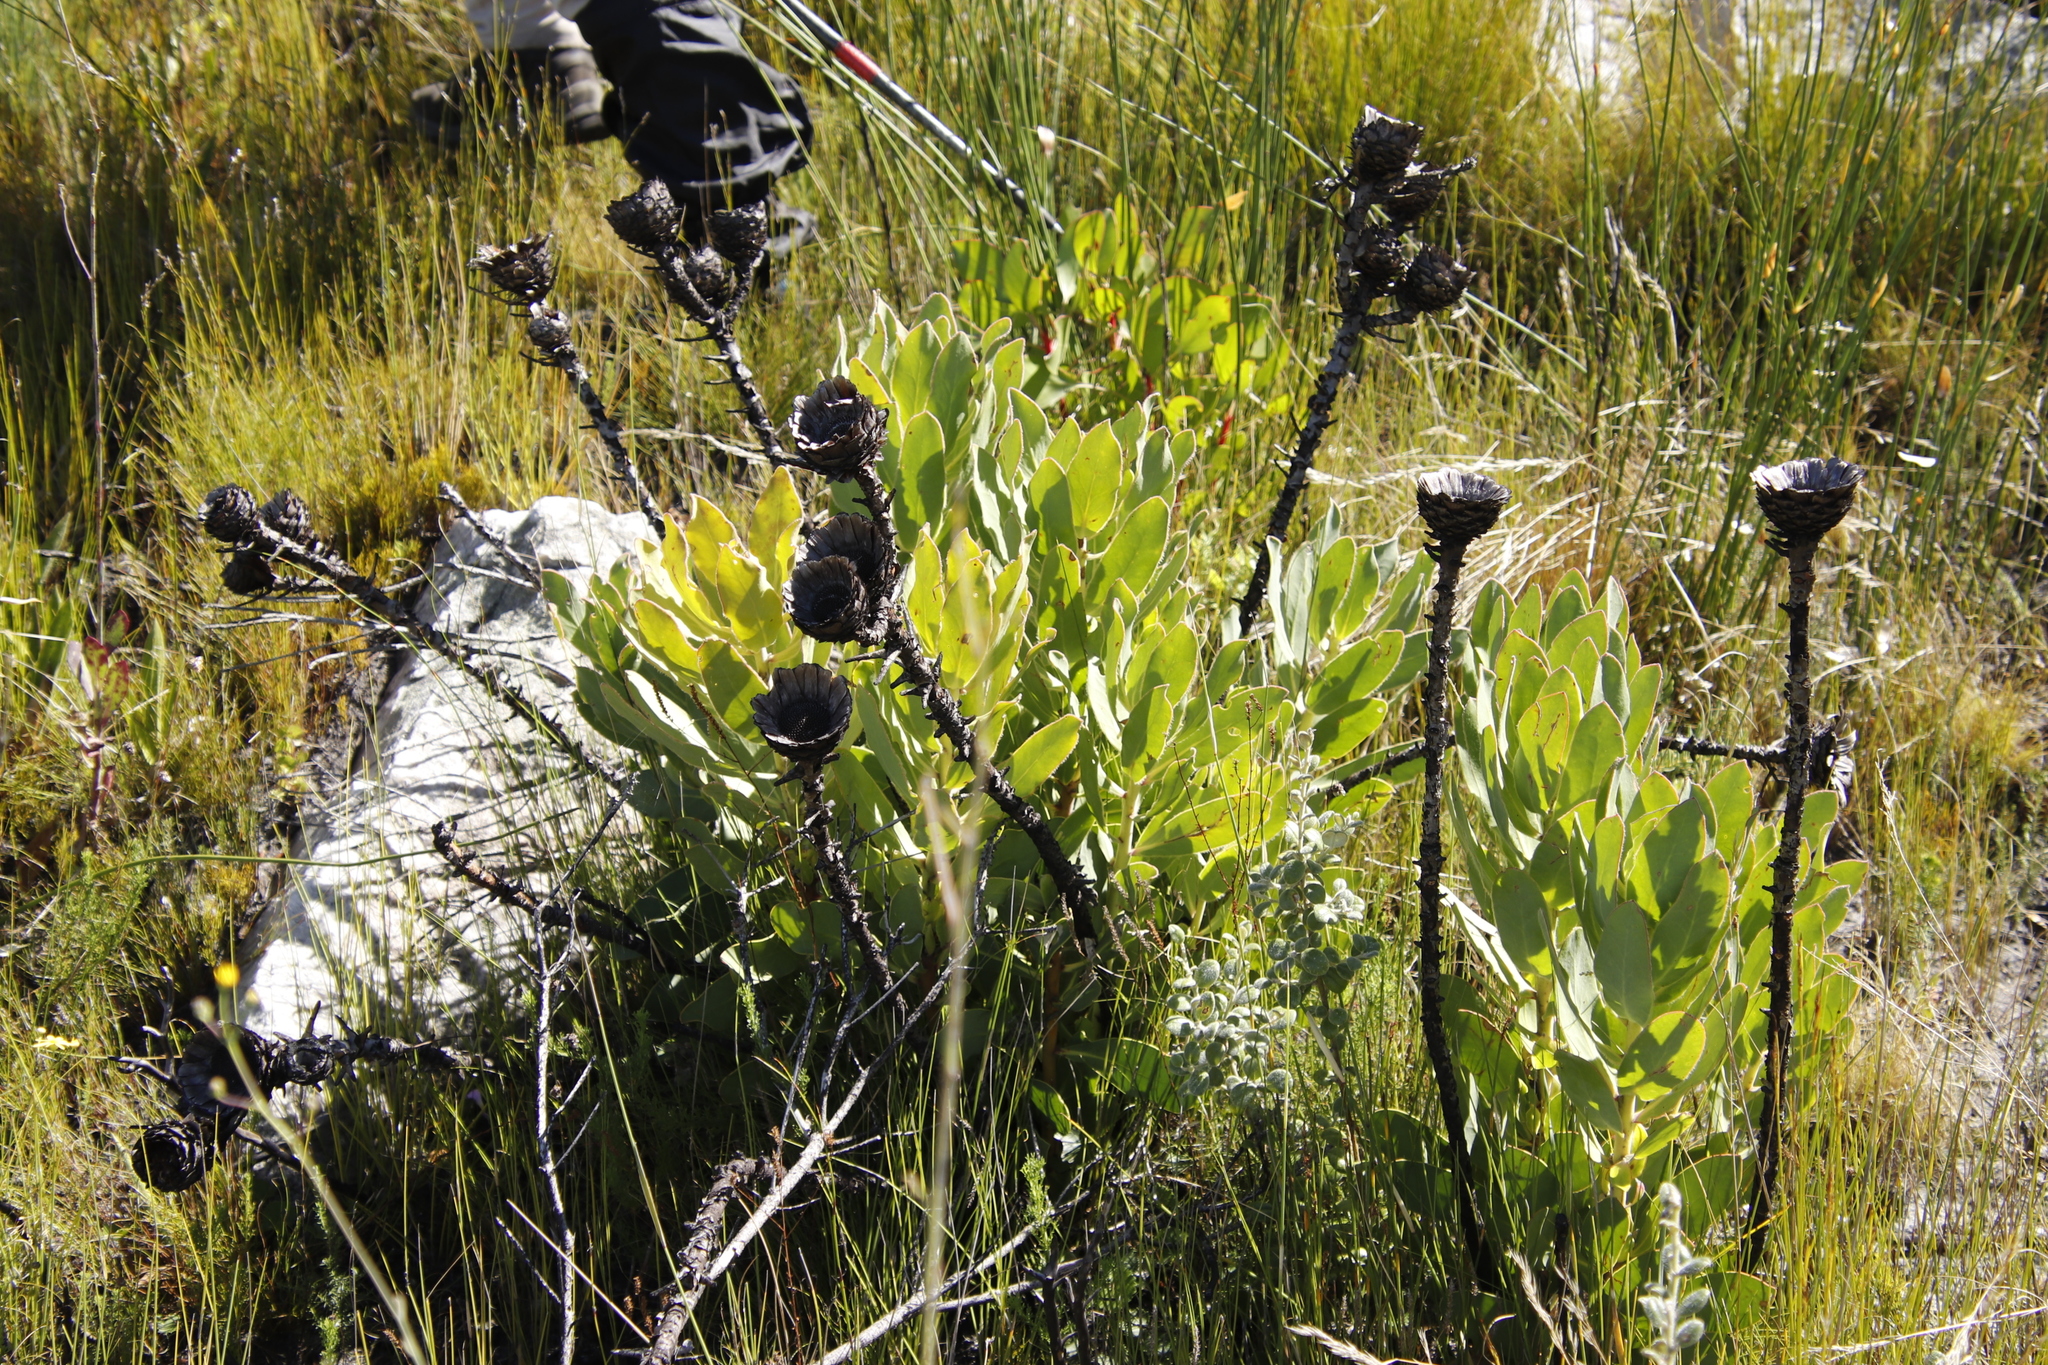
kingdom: Plantae
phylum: Tracheophyta
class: Magnoliopsida
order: Proteales
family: Proteaceae
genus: Protea
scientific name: Protea speciosa
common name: Brown-beard sugarbush
